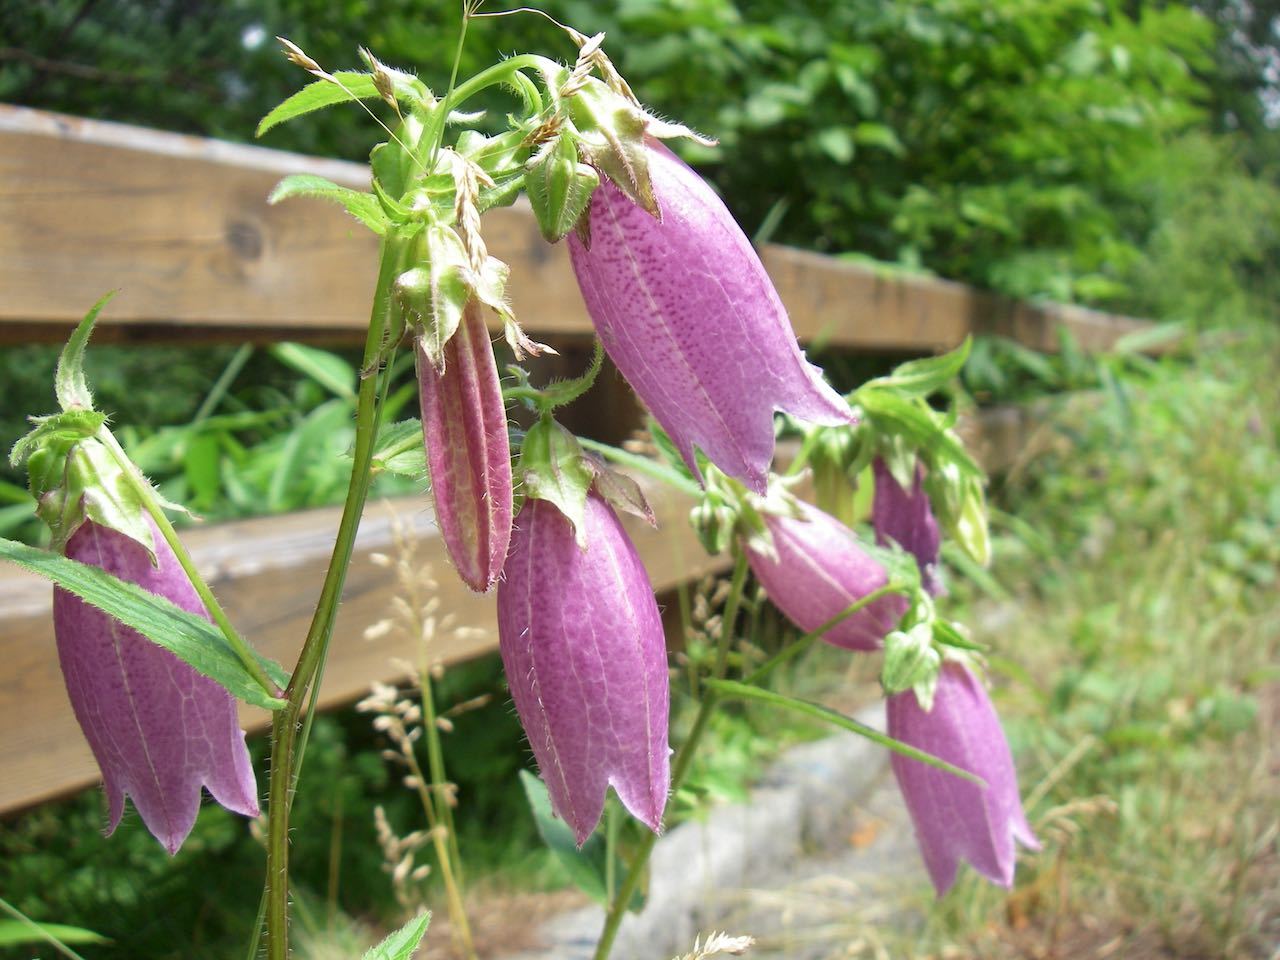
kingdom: Plantae
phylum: Tracheophyta
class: Magnoliopsida
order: Asterales
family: Campanulaceae
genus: Campanula
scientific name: Campanula punctata
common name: Spotted bellflower
